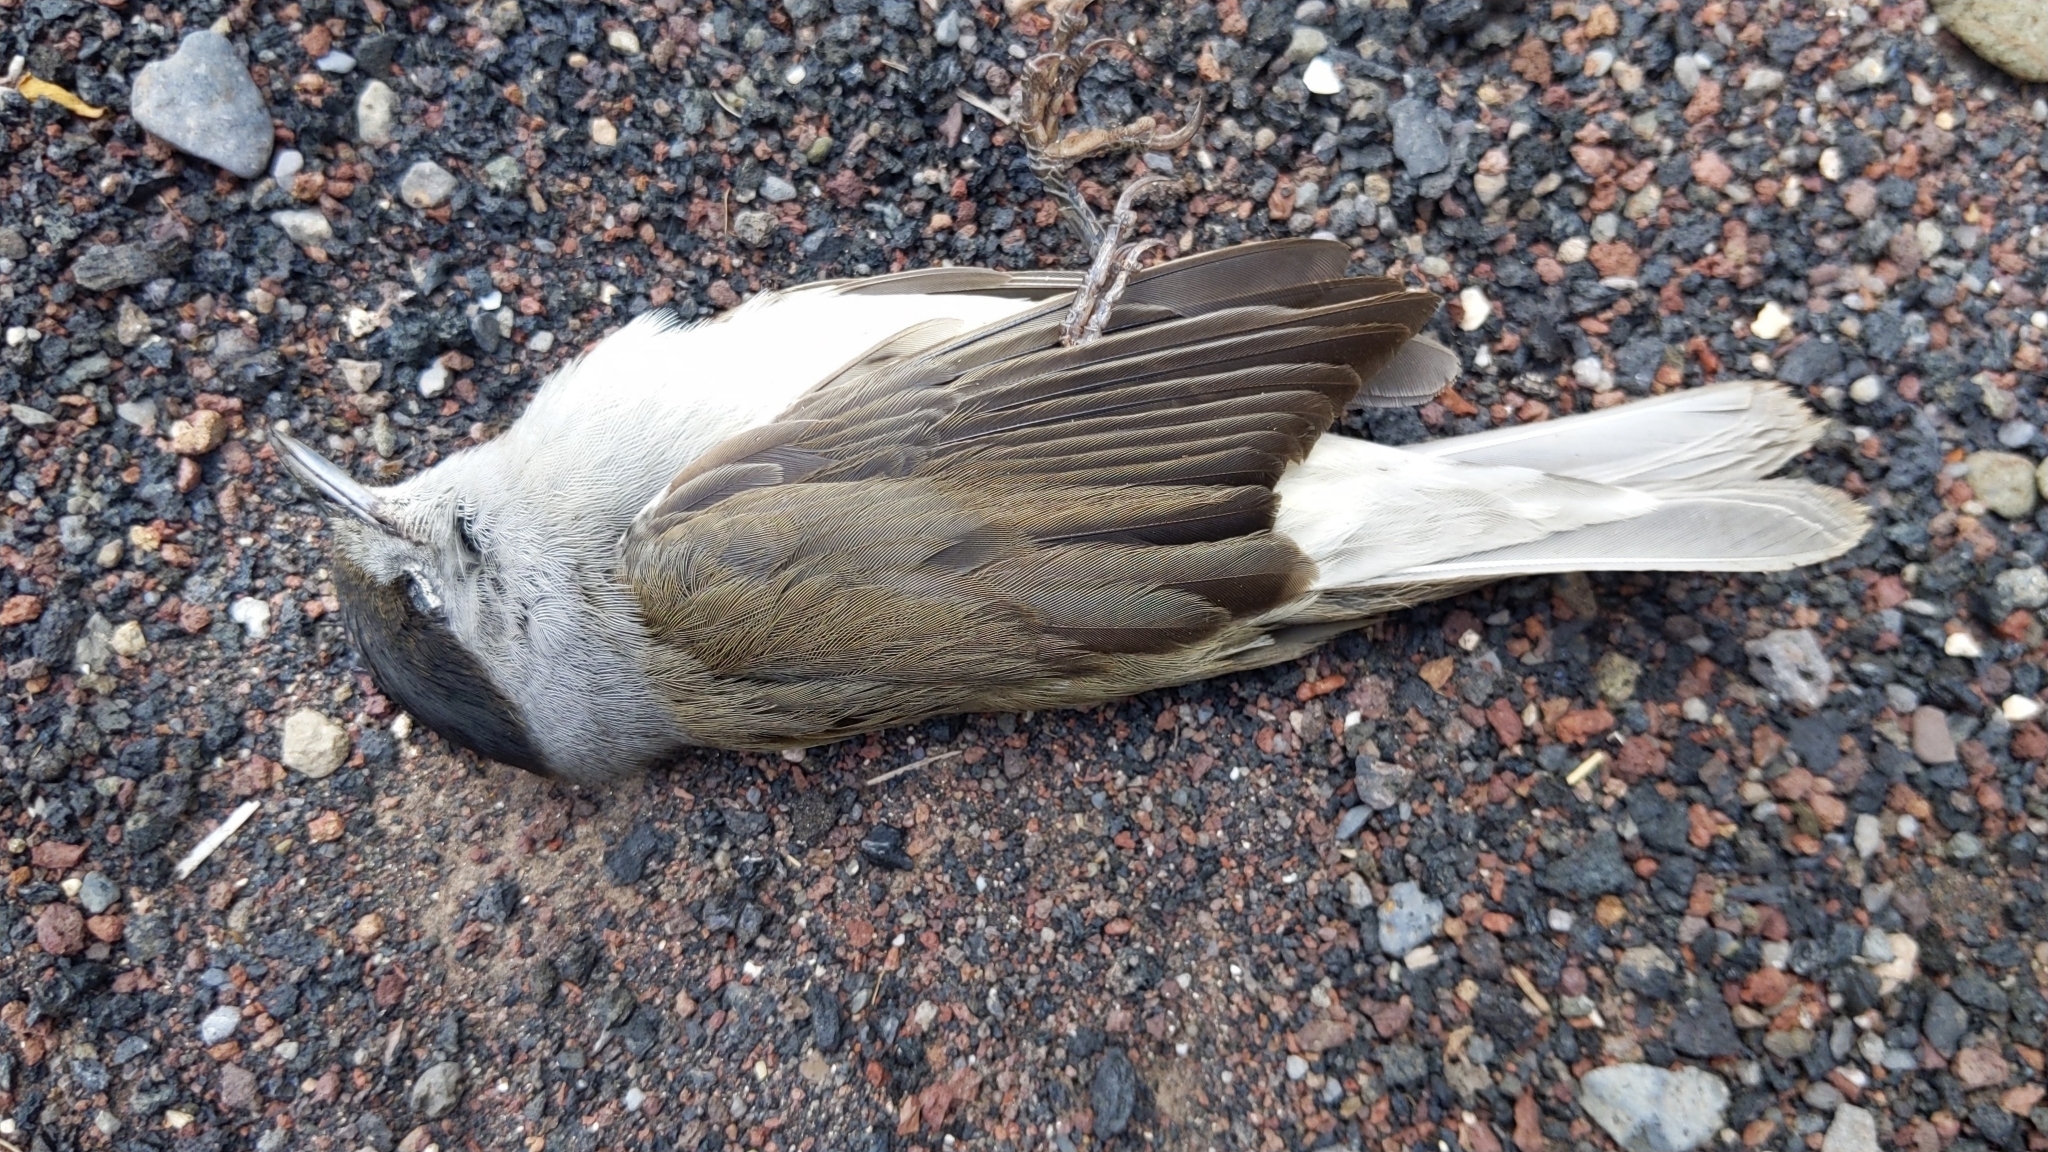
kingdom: Animalia
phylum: Chordata
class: Aves
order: Passeriformes
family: Sylviidae
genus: Sylvia
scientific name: Sylvia atricapilla
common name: Eurasian blackcap
